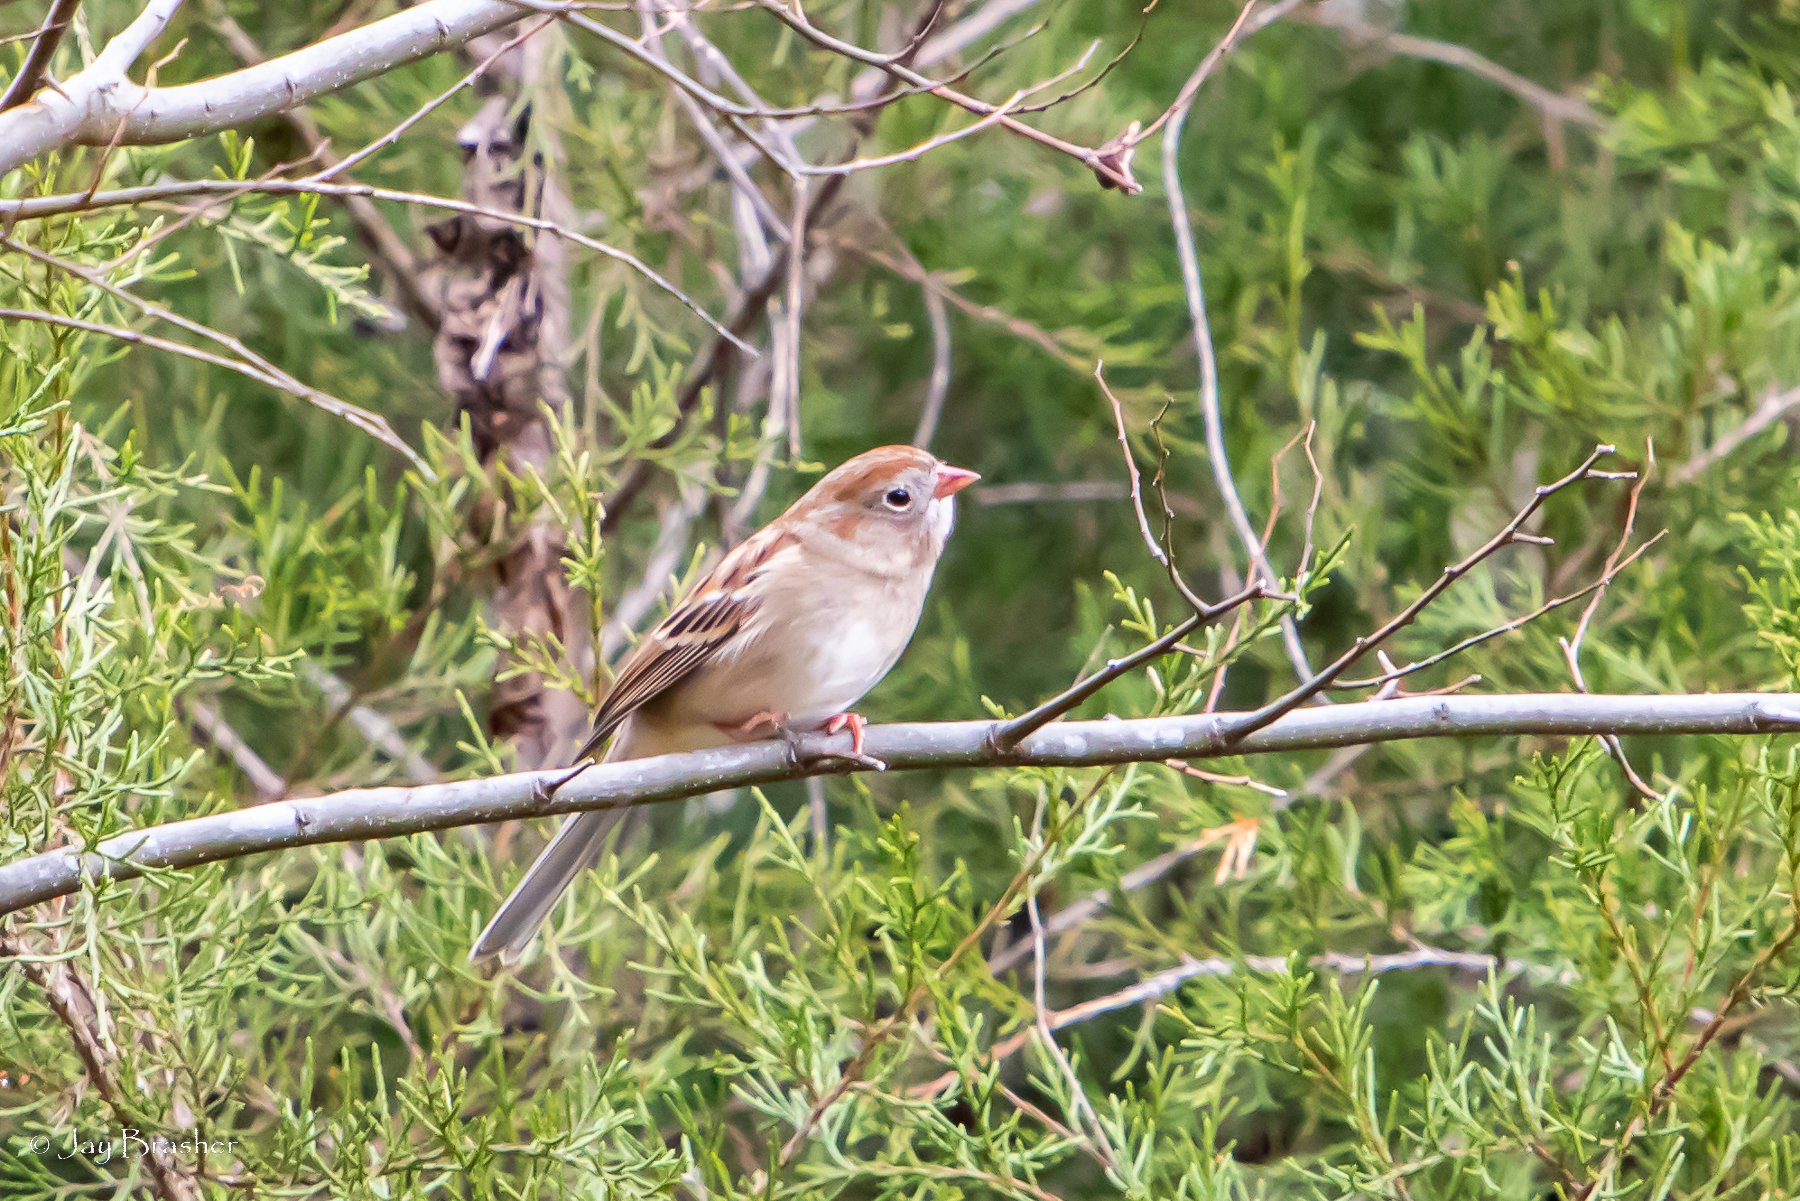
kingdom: Animalia
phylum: Chordata
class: Aves
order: Passeriformes
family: Passerellidae
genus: Spizella
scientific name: Spizella pusilla
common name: Field sparrow
